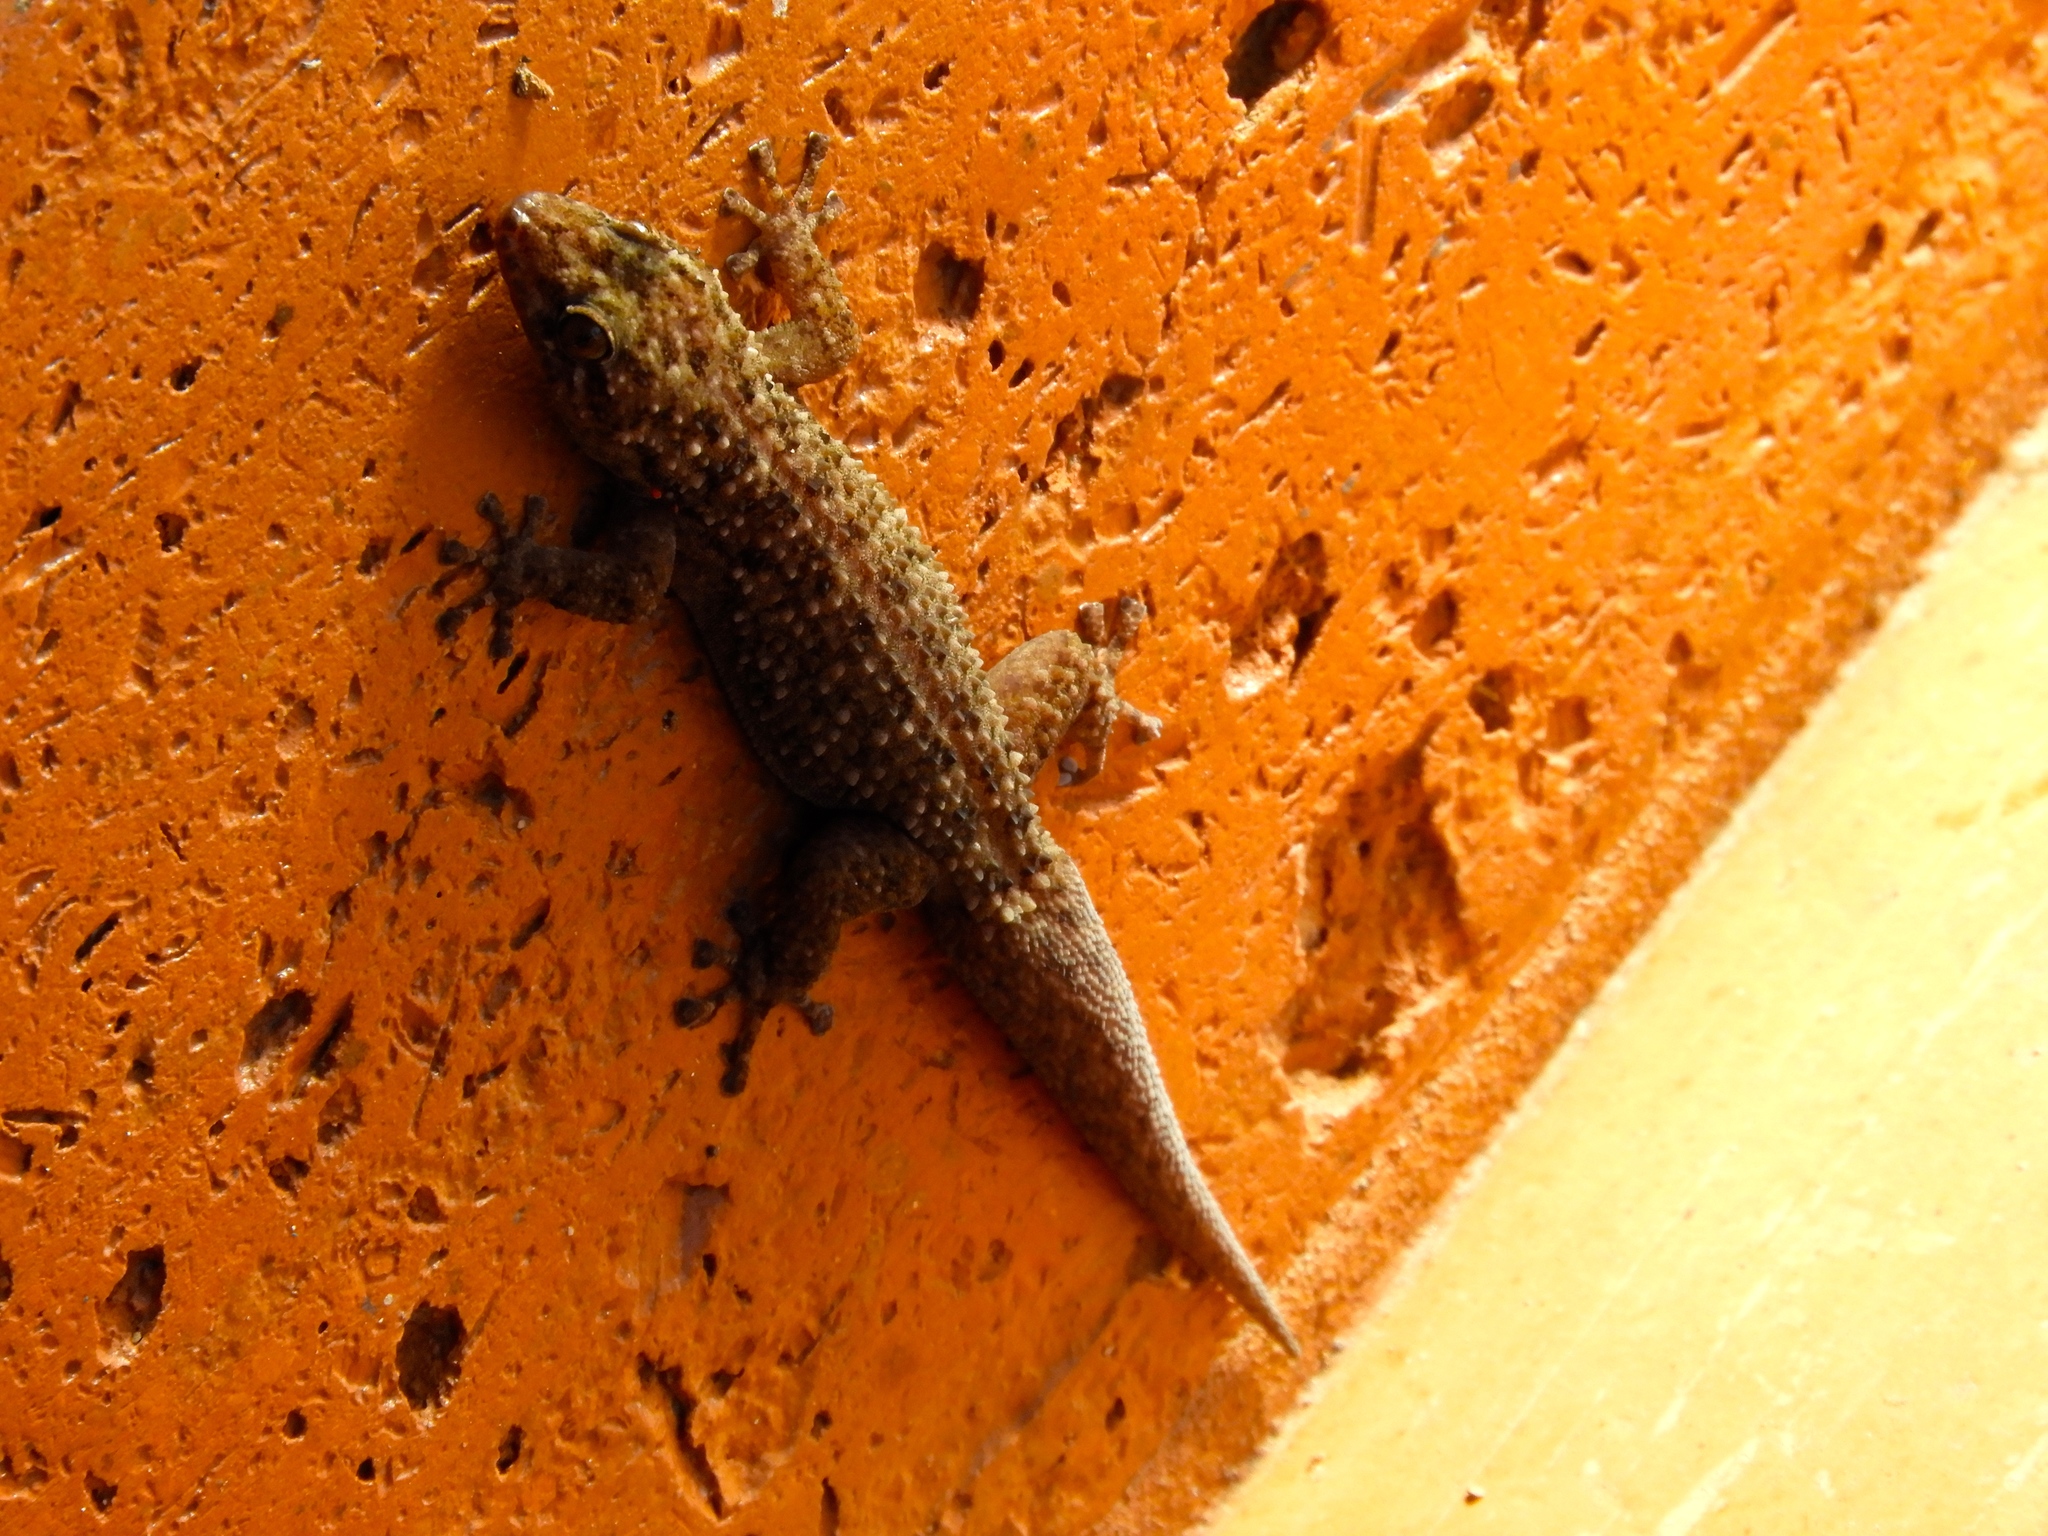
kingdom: Animalia
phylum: Chordata
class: Squamata
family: Phyllodactylidae
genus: Phyllodactylus
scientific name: Phyllodactylus tuberculosus
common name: Yellowbelly  gecko
